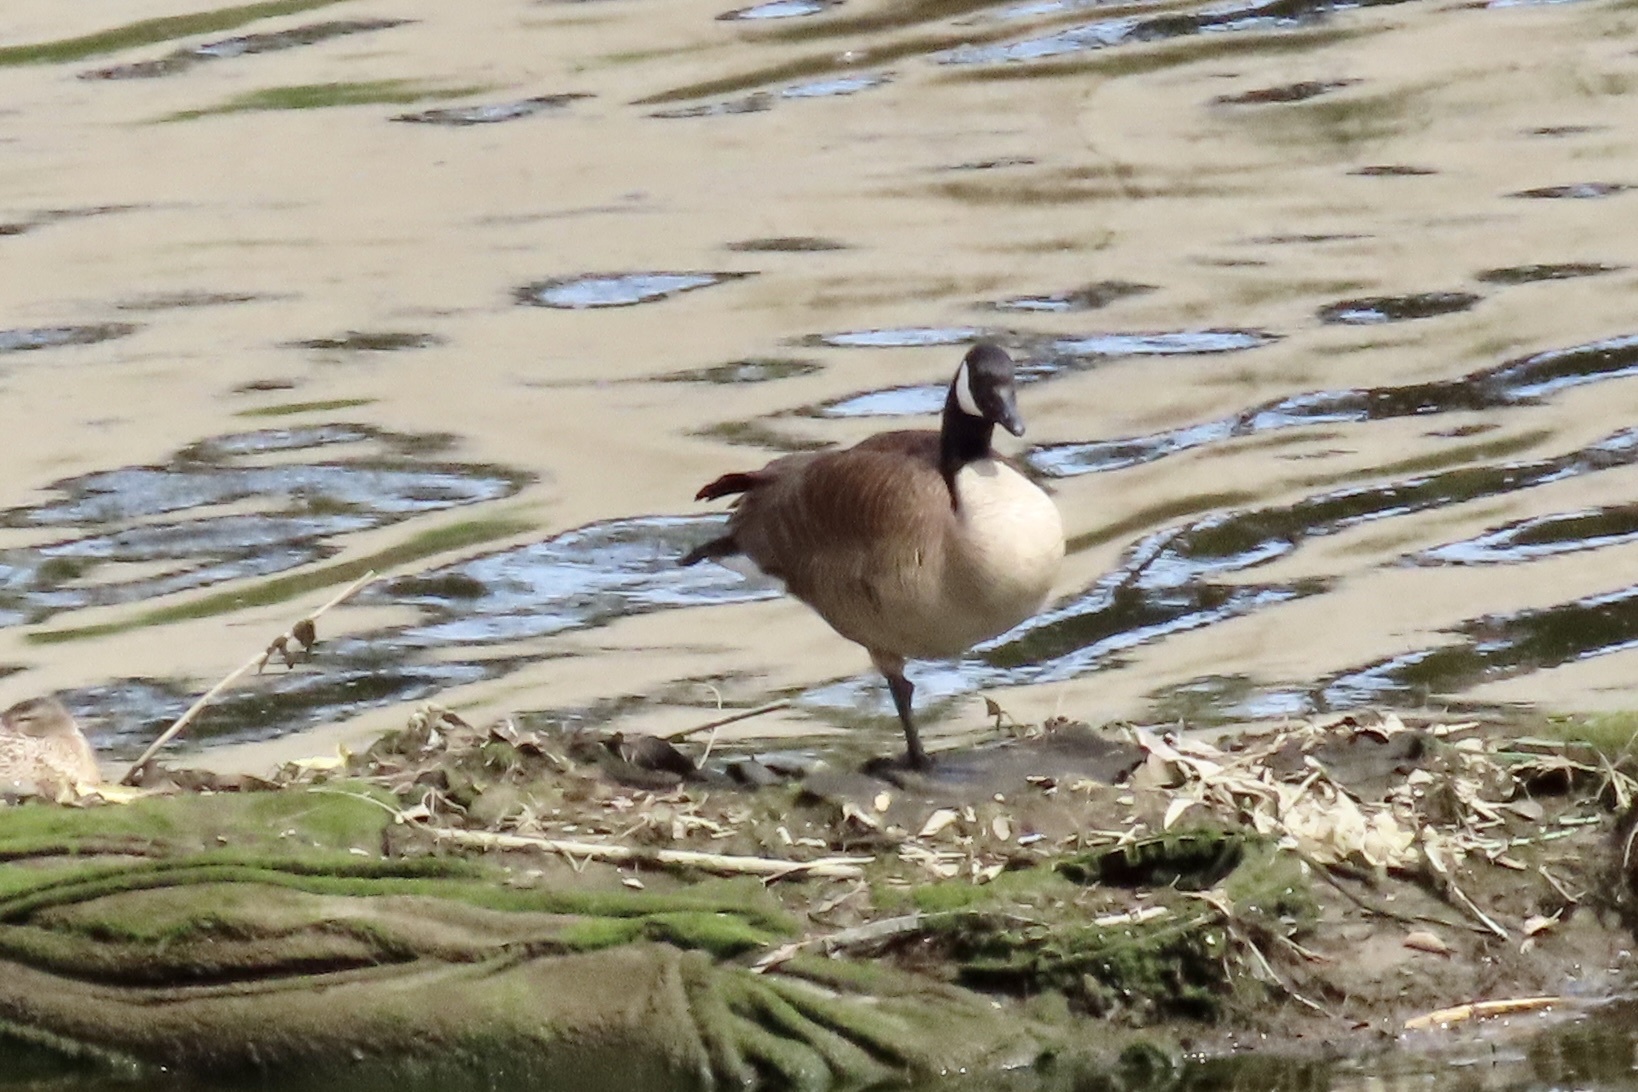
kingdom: Animalia
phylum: Chordata
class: Aves
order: Anseriformes
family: Anatidae
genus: Branta
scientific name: Branta canadensis
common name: Canada goose
